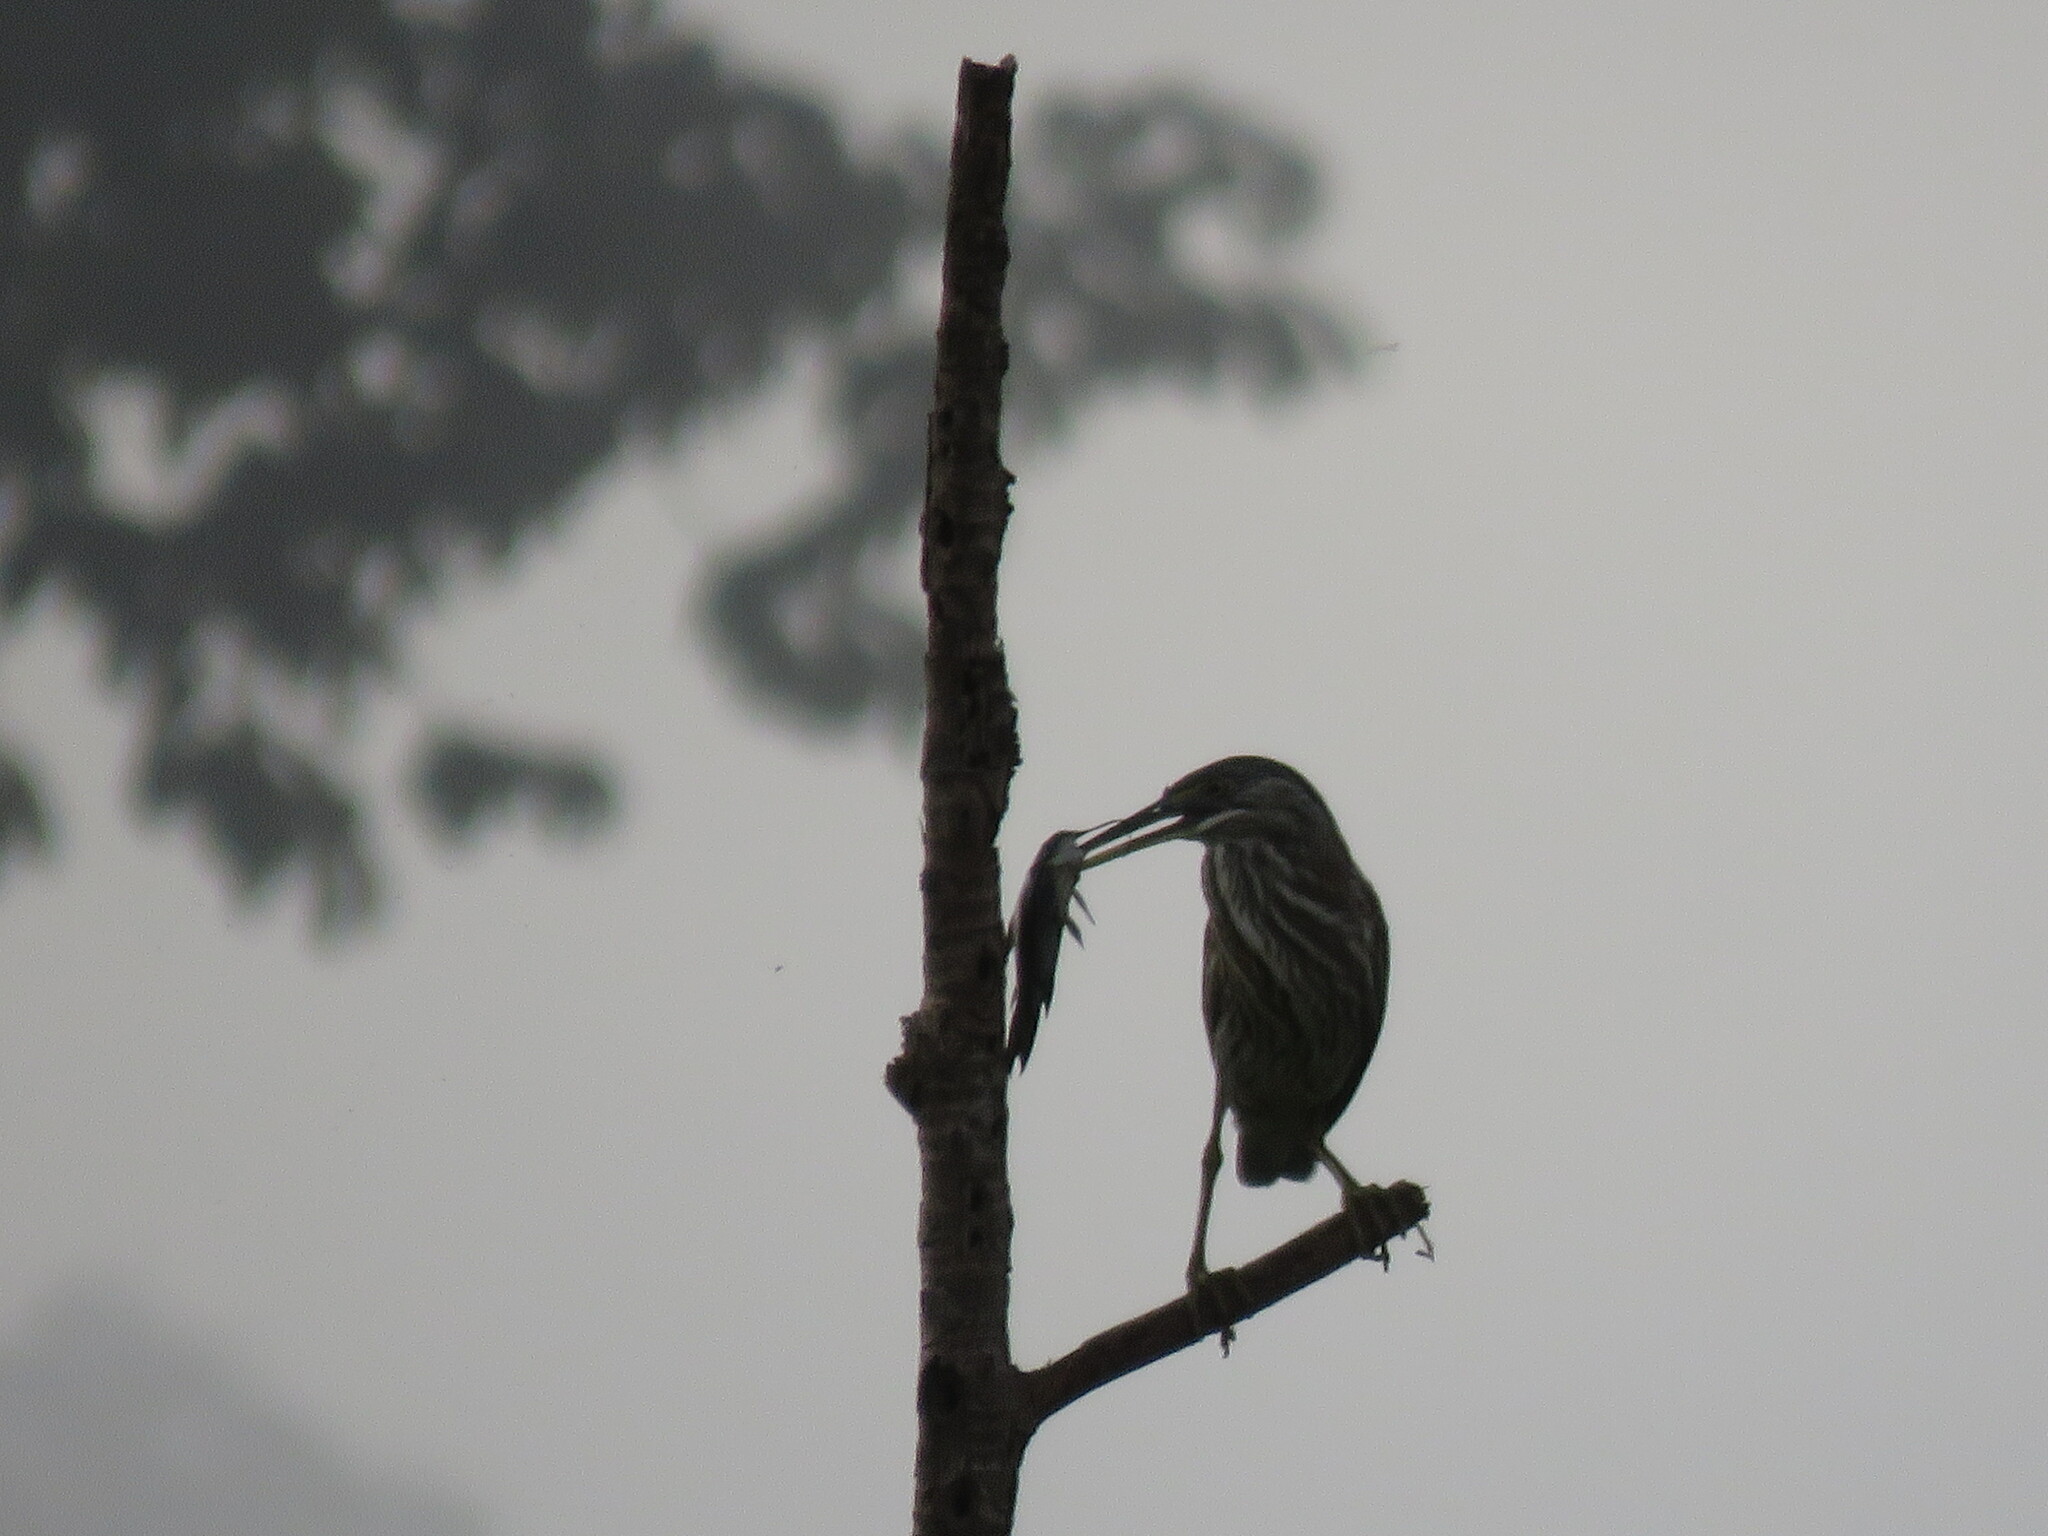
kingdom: Animalia
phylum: Chordata
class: Aves
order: Pelecaniformes
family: Ardeidae
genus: Butorides
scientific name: Butorides striata
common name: Striated heron
